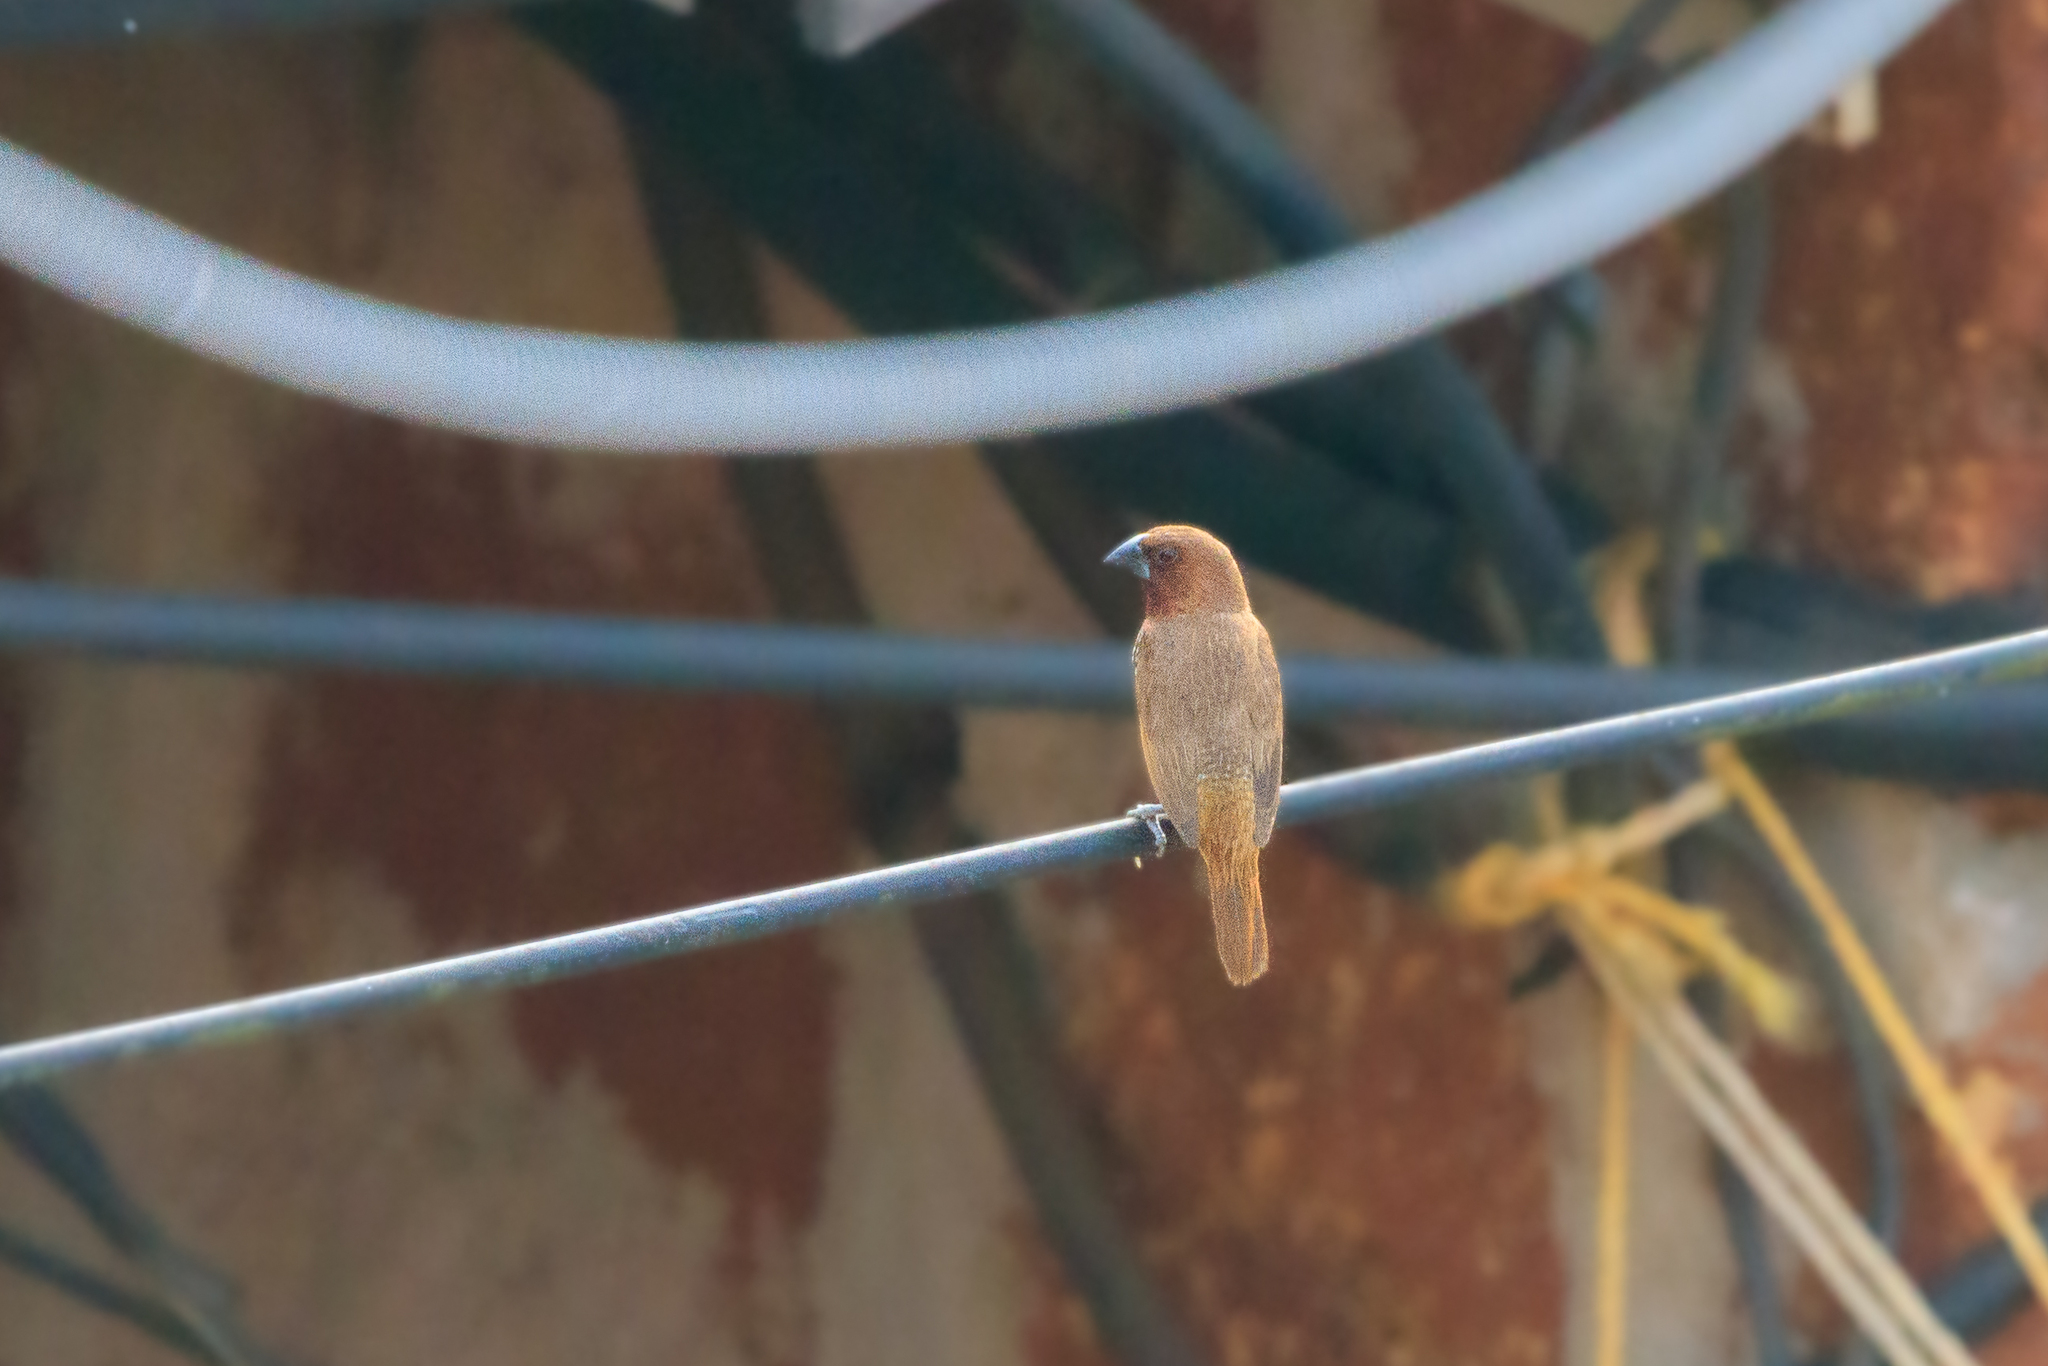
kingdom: Animalia
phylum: Chordata
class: Aves
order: Passeriformes
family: Estrildidae
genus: Lonchura
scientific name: Lonchura punctulata
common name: Scaly-breasted munia
